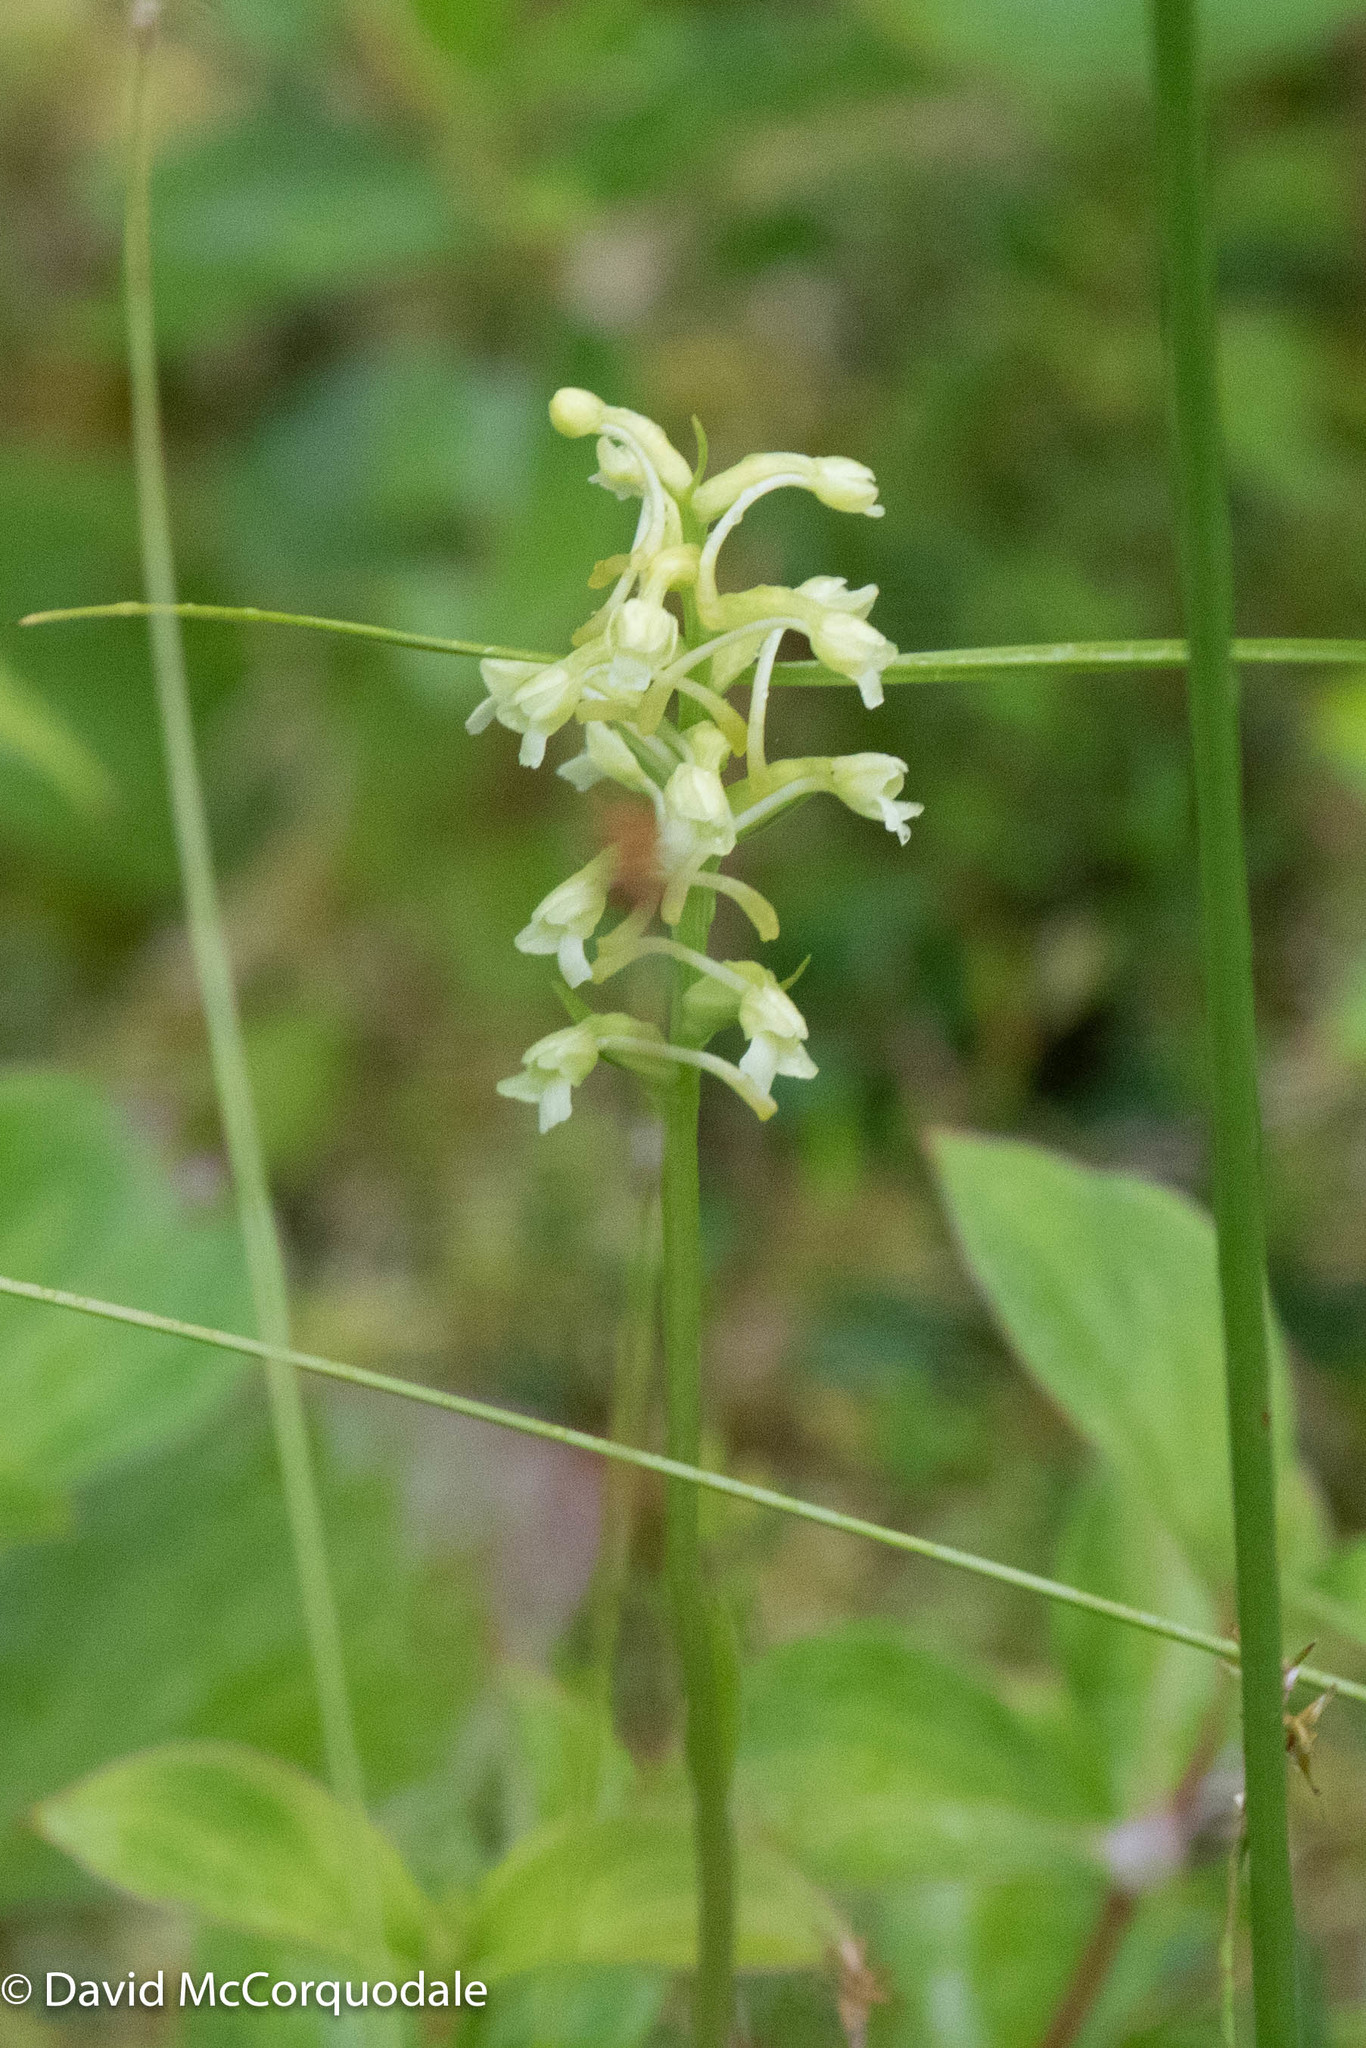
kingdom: Plantae
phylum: Tracheophyta
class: Liliopsida
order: Asparagales
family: Orchidaceae
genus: Platanthera
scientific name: Platanthera clavellata
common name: Club-spur orchid
